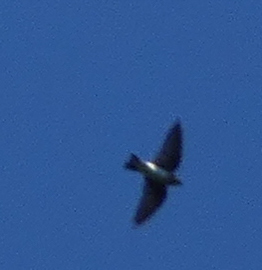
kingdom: Animalia
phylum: Chordata
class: Aves
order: Passeriformes
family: Hirundinidae
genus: Tachycineta
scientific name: Tachycineta bicolor
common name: Tree swallow
